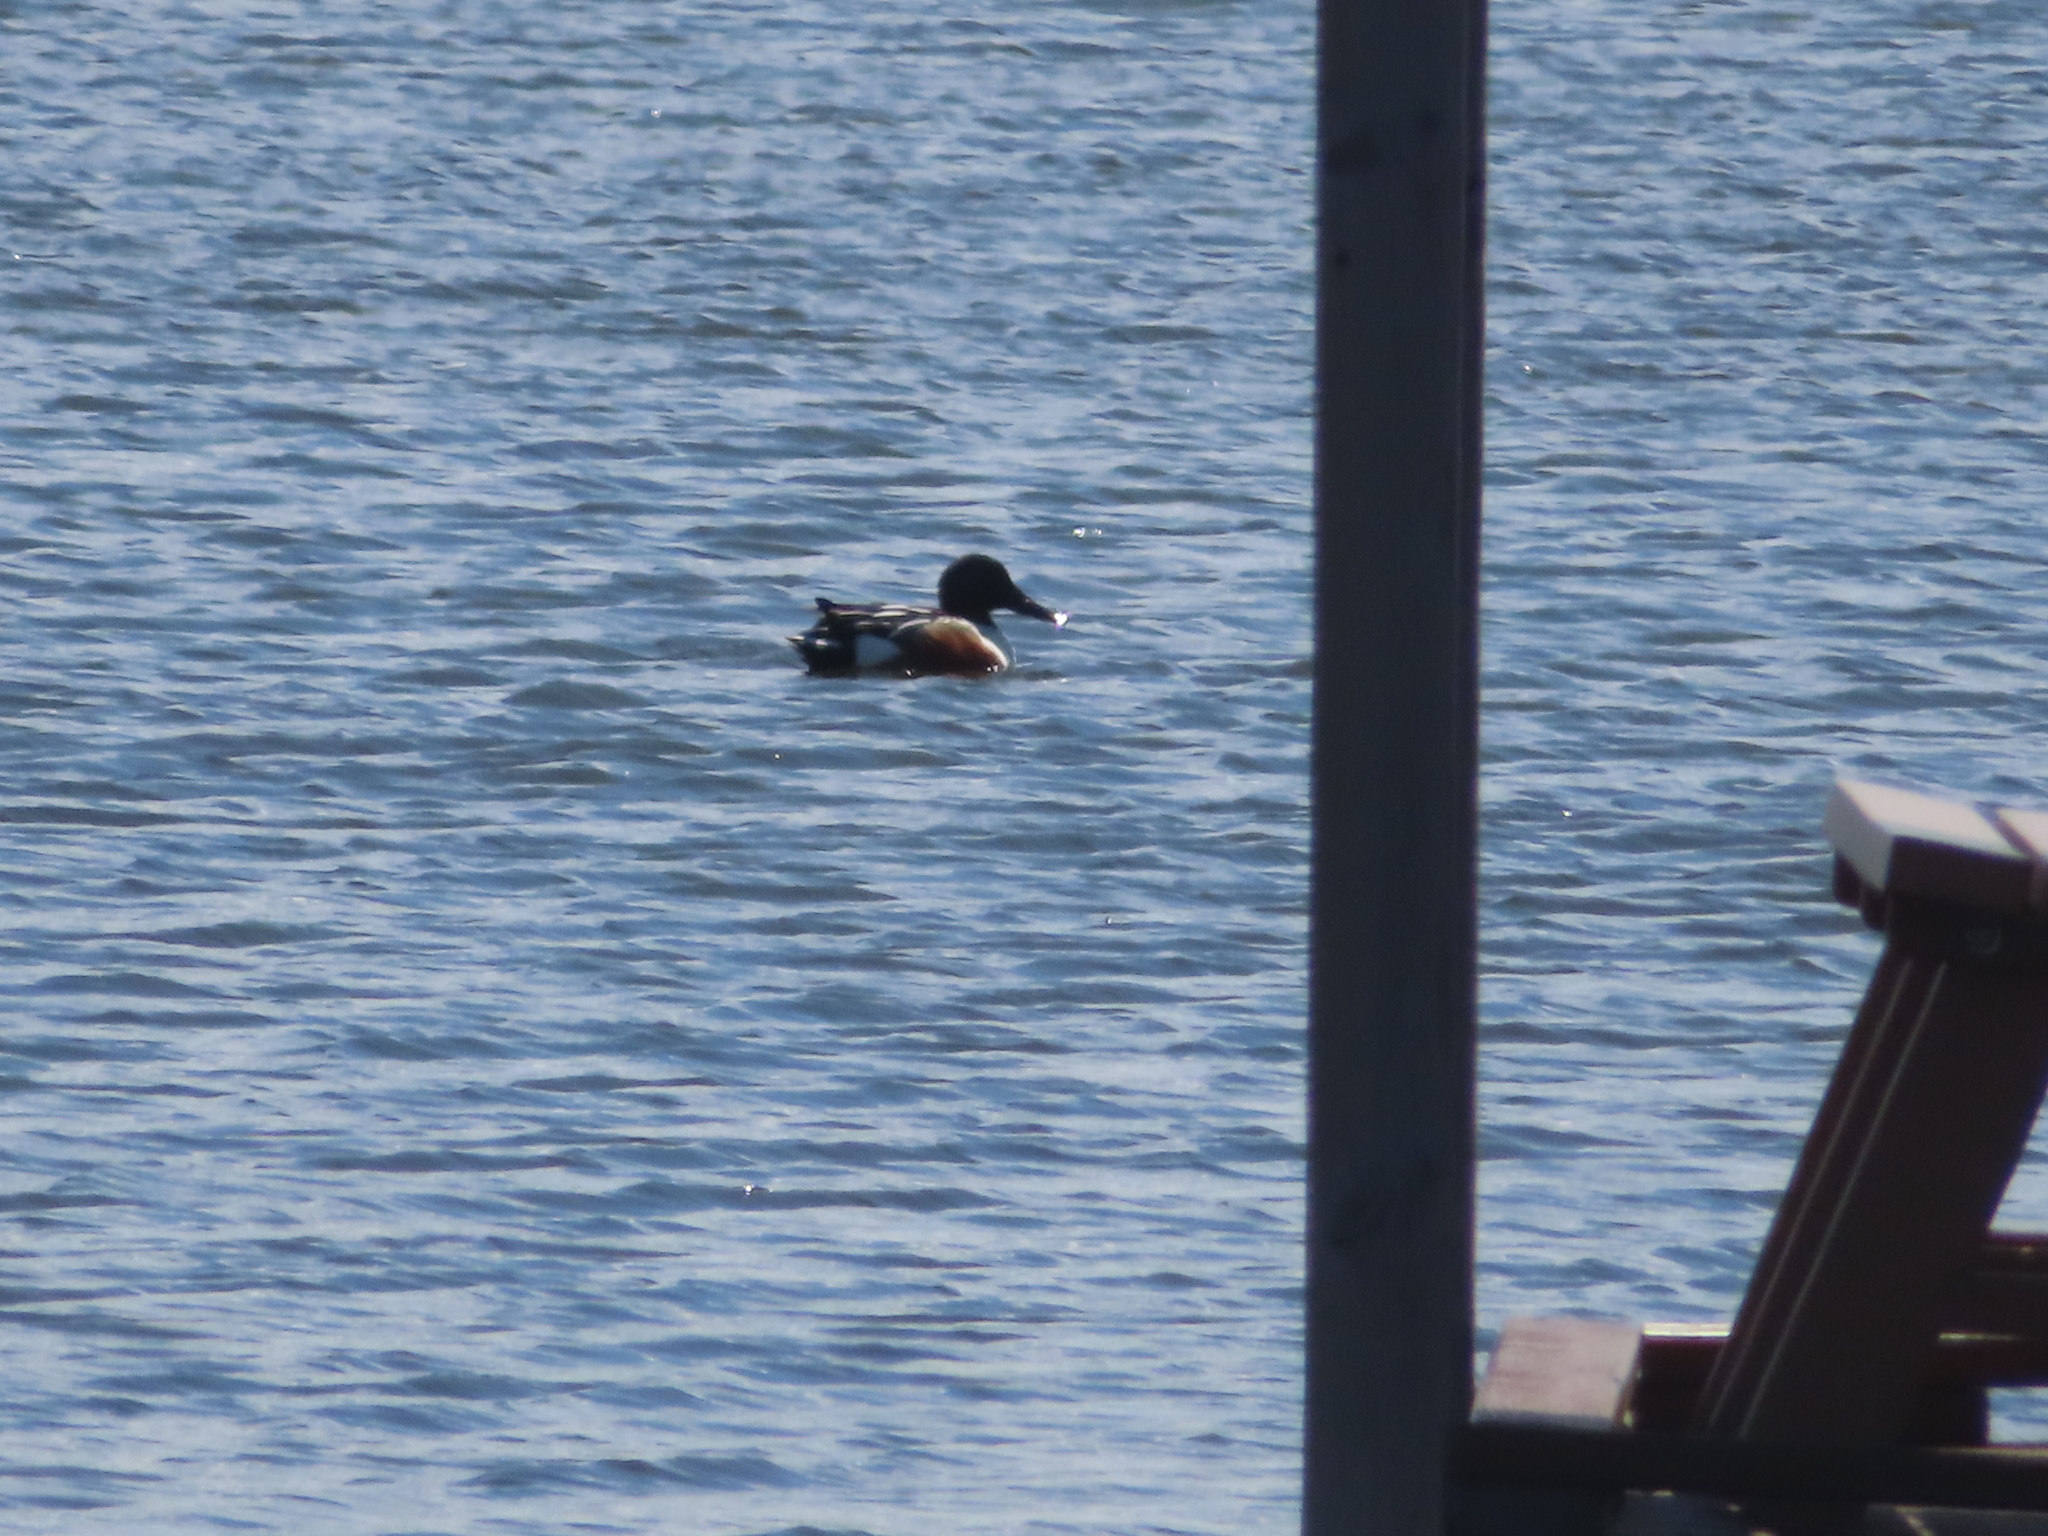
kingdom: Animalia
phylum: Chordata
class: Aves
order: Anseriformes
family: Anatidae
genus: Spatula
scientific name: Spatula clypeata
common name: Northern shoveler
